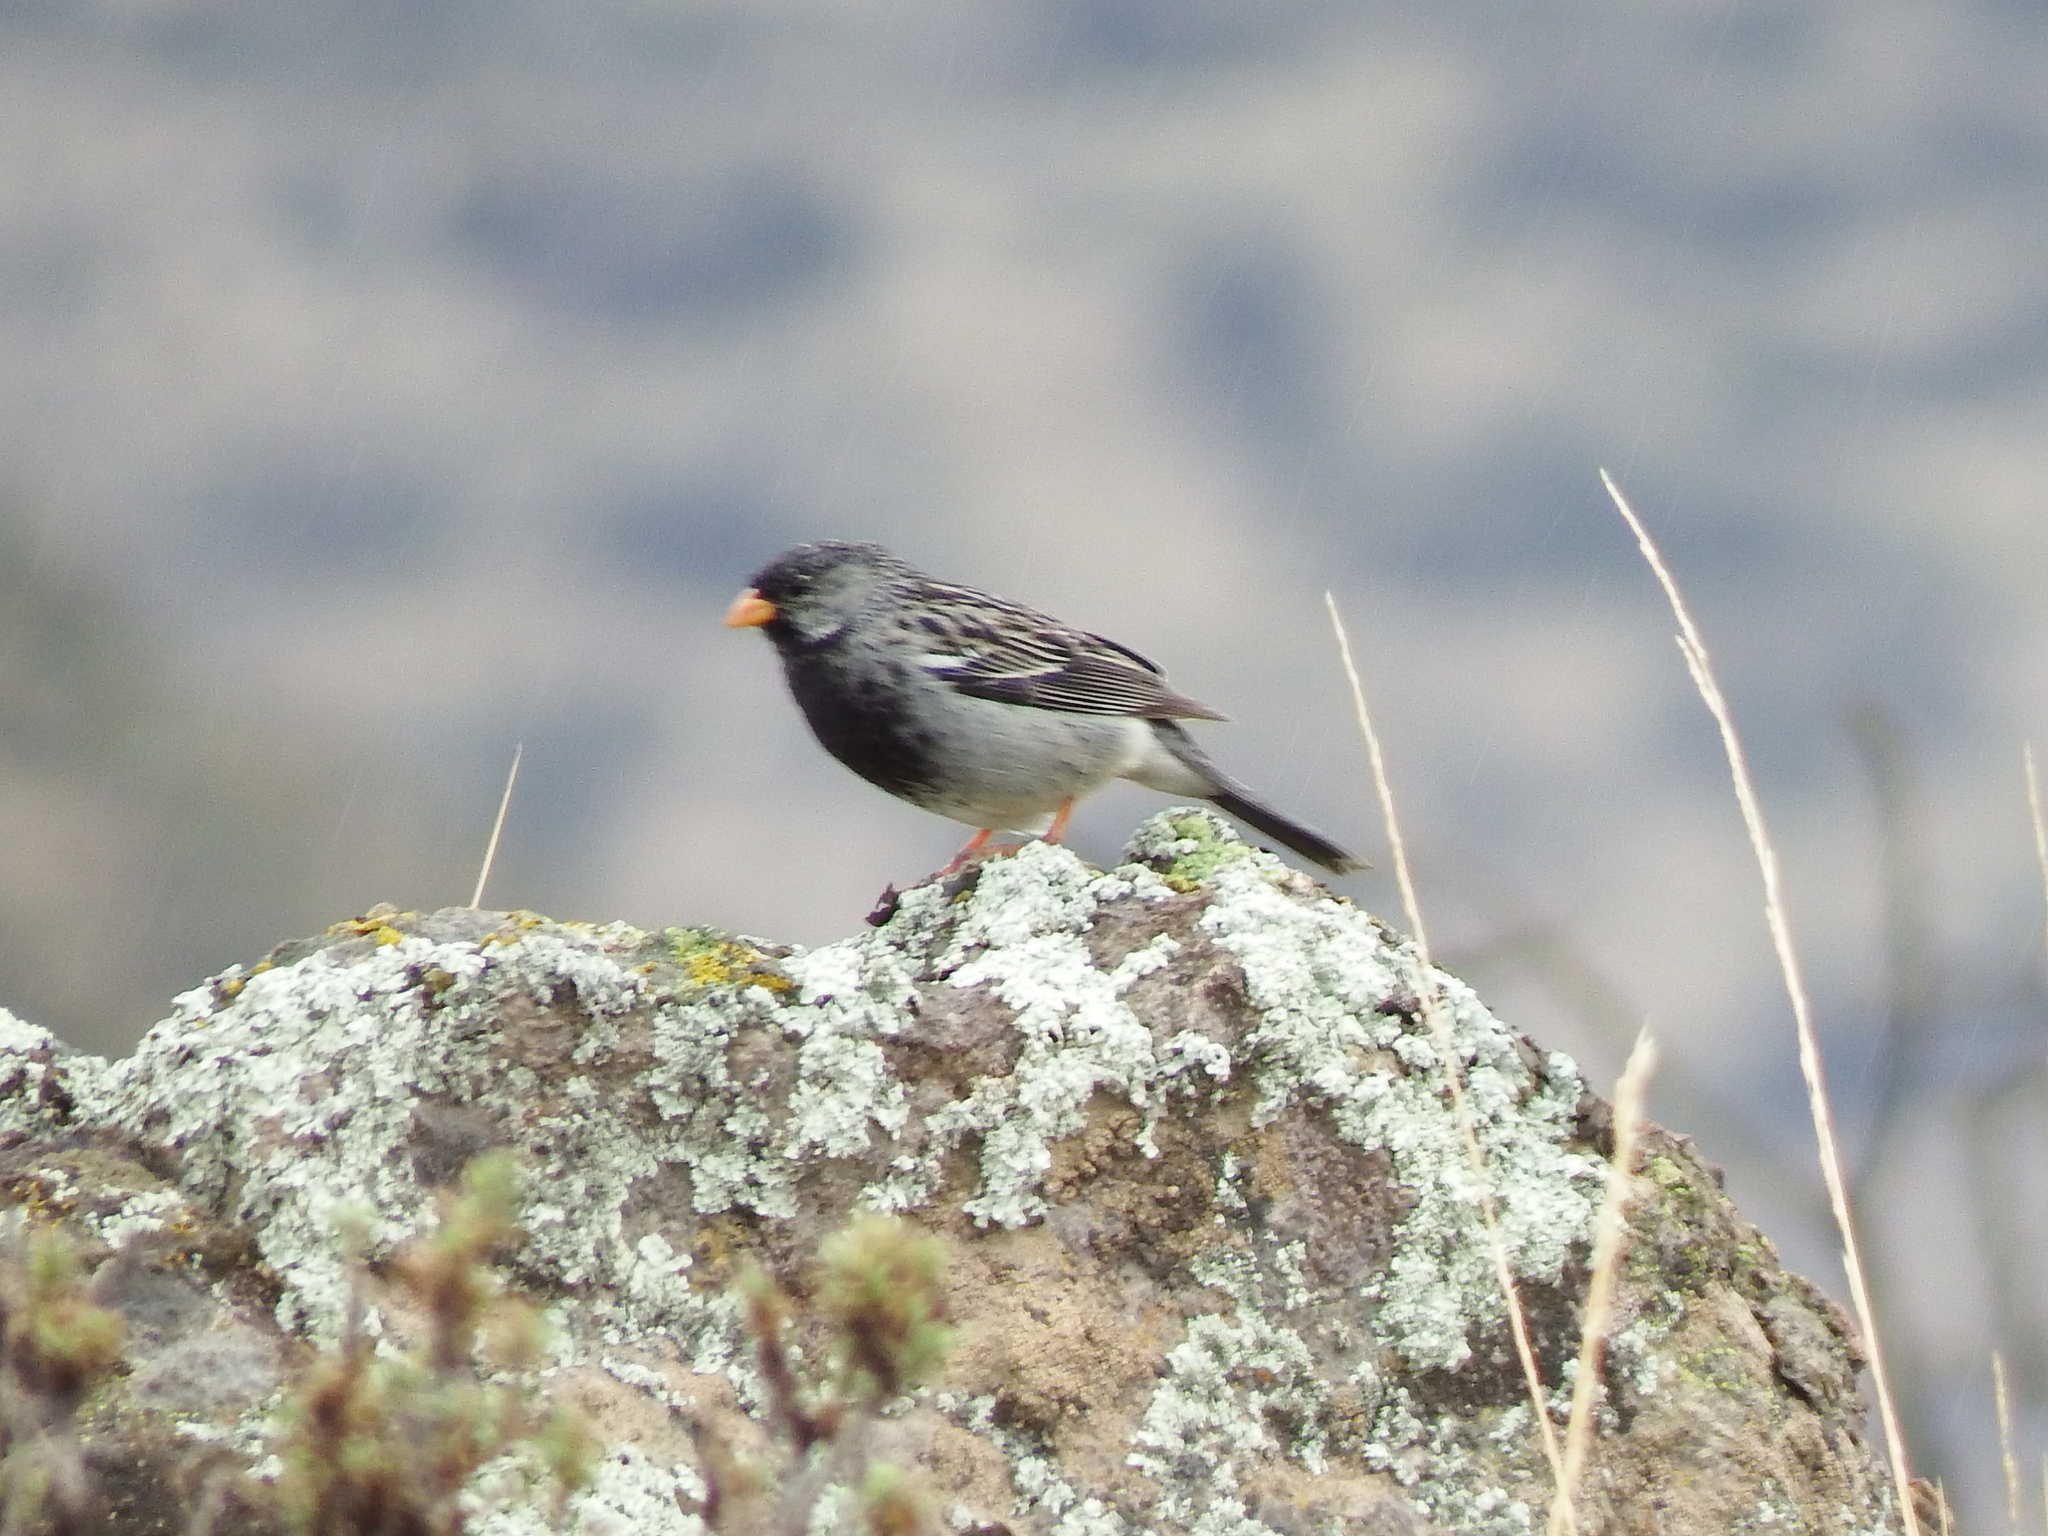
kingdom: Animalia
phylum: Chordata
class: Aves
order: Passeriformes
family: Thraupidae
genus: Rhopospina
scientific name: Rhopospina fruticeti
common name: Mourning sierra finch
